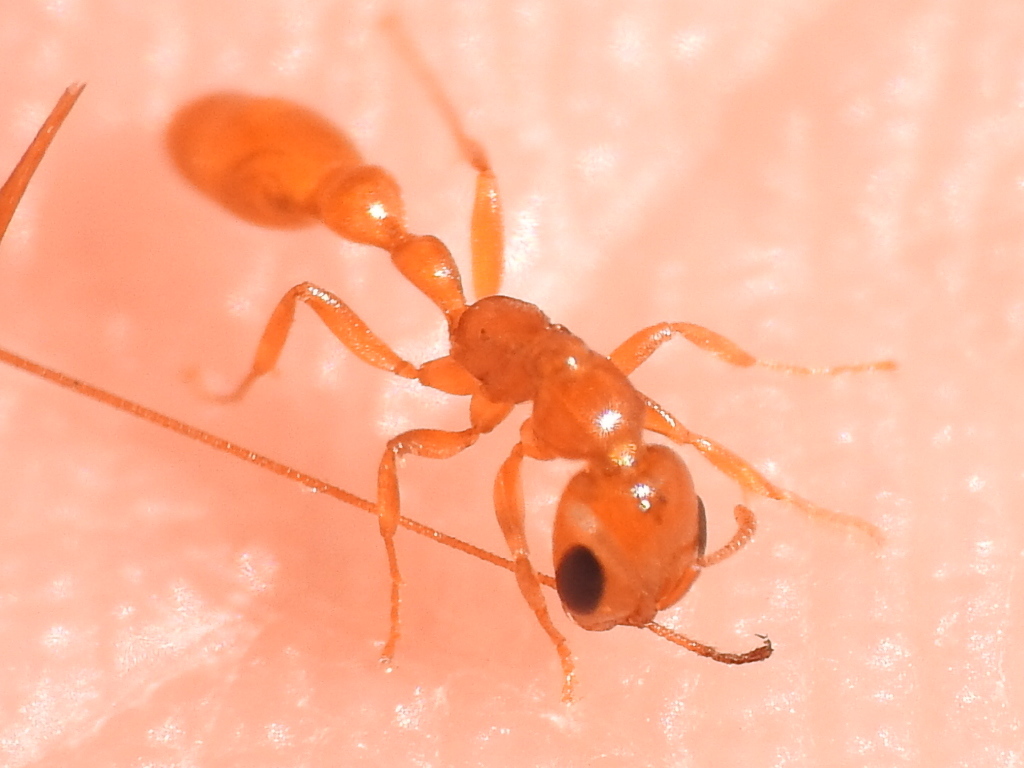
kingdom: Animalia
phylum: Arthropoda
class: Insecta
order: Hymenoptera
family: Formicidae
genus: Pseudomyrmex
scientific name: Pseudomyrmex pallidus
